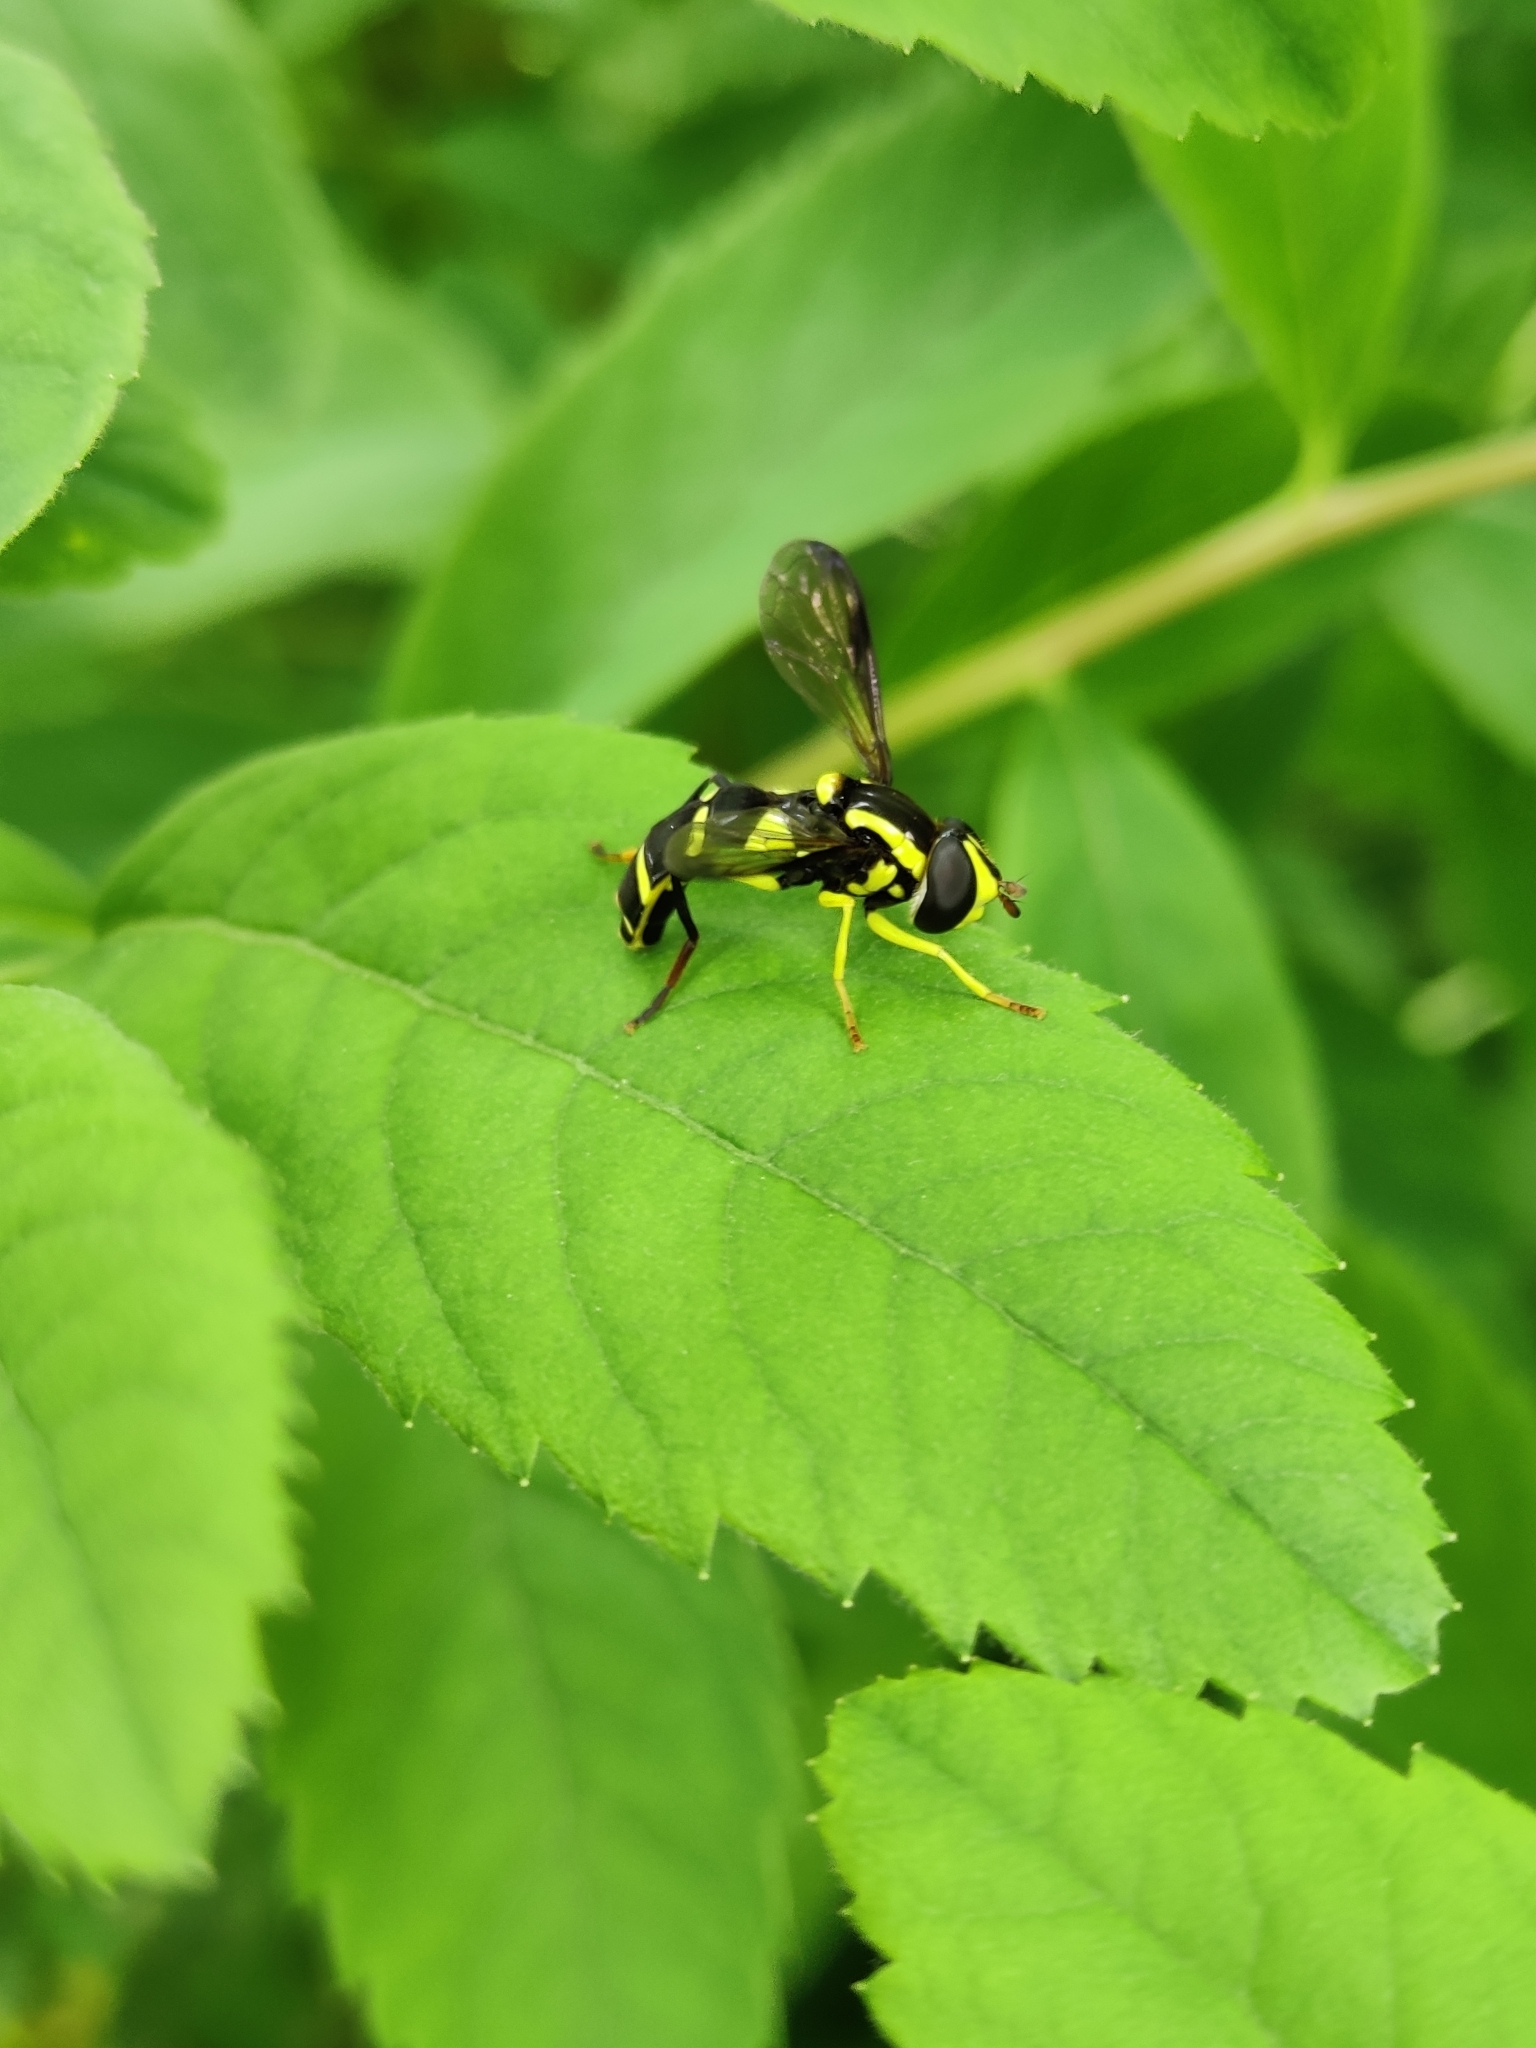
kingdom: Animalia
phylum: Arthropoda
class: Insecta
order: Diptera
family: Syrphidae
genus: Philhelius
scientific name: Philhelius dives
